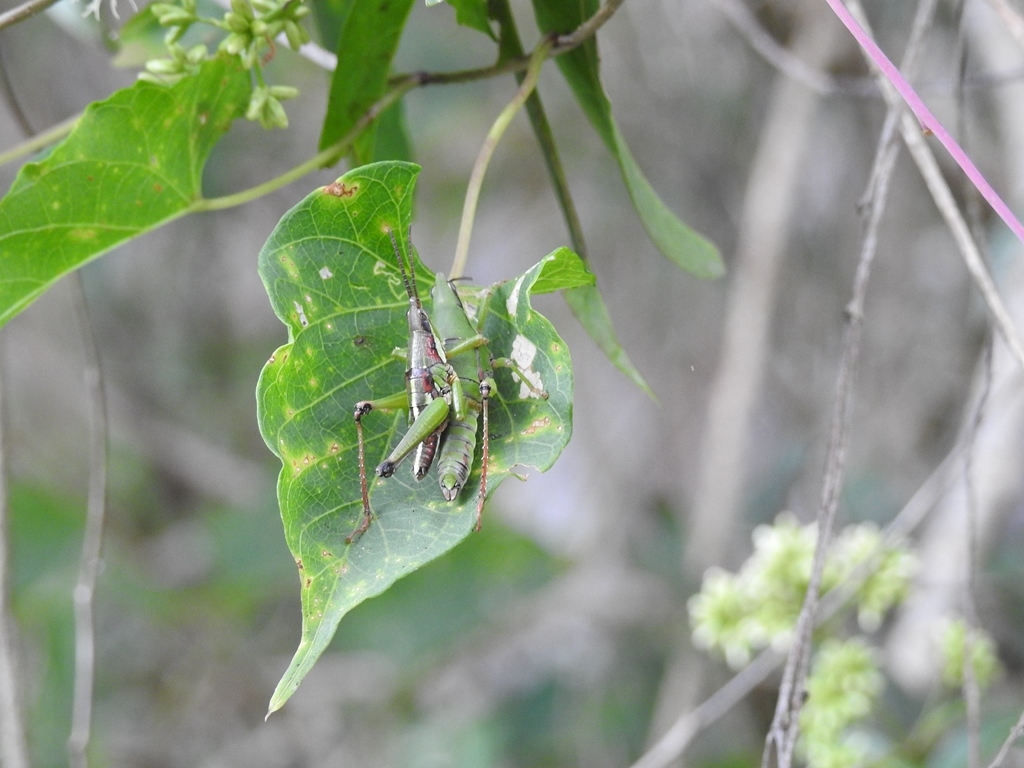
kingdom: Animalia
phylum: Arthropoda
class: Insecta
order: Orthoptera
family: Pyrgomorphidae
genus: Sphenarium
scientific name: Sphenarium histrio
